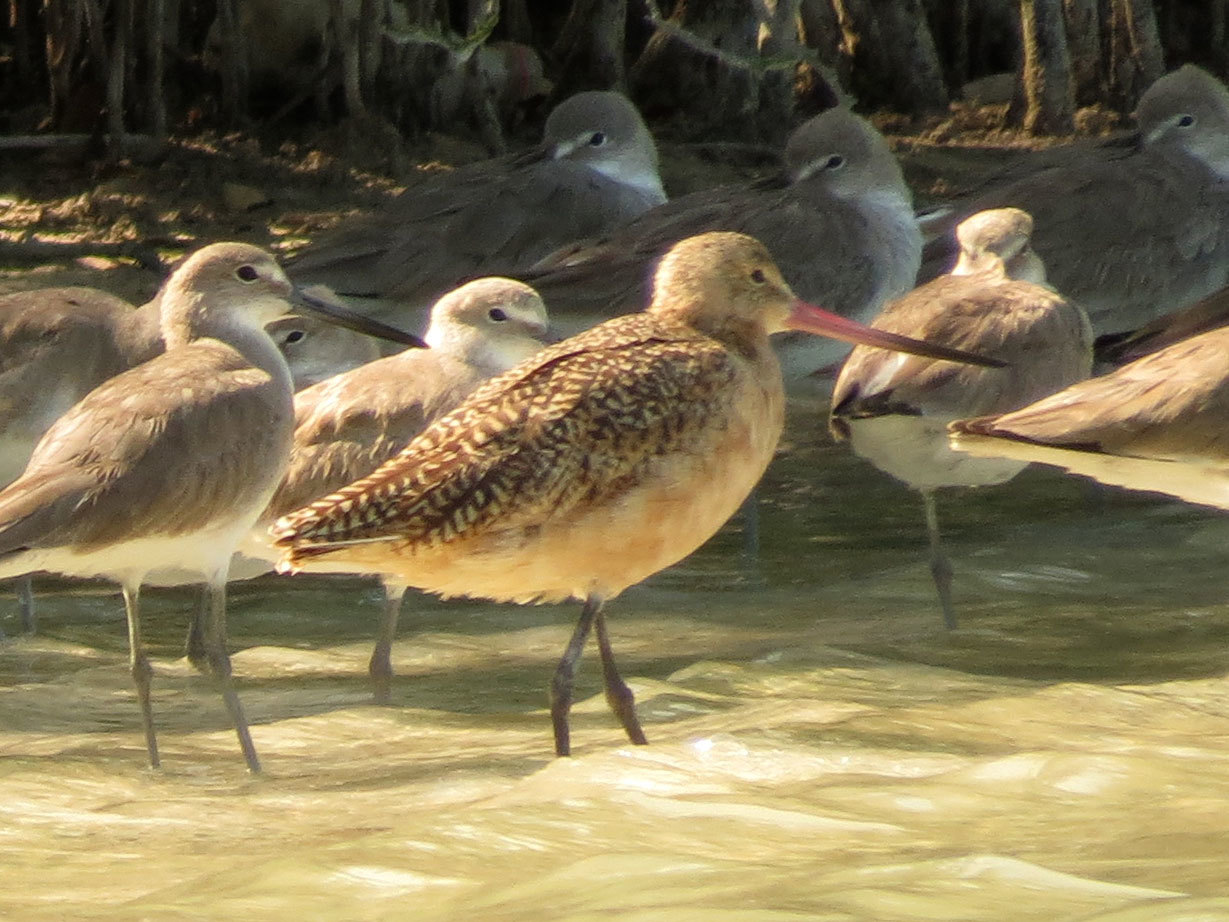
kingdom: Animalia
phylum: Chordata
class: Aves
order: Charadriiformes
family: Scolopacidae
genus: Limosa
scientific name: Limosa fedoa
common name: Marbled godwit
